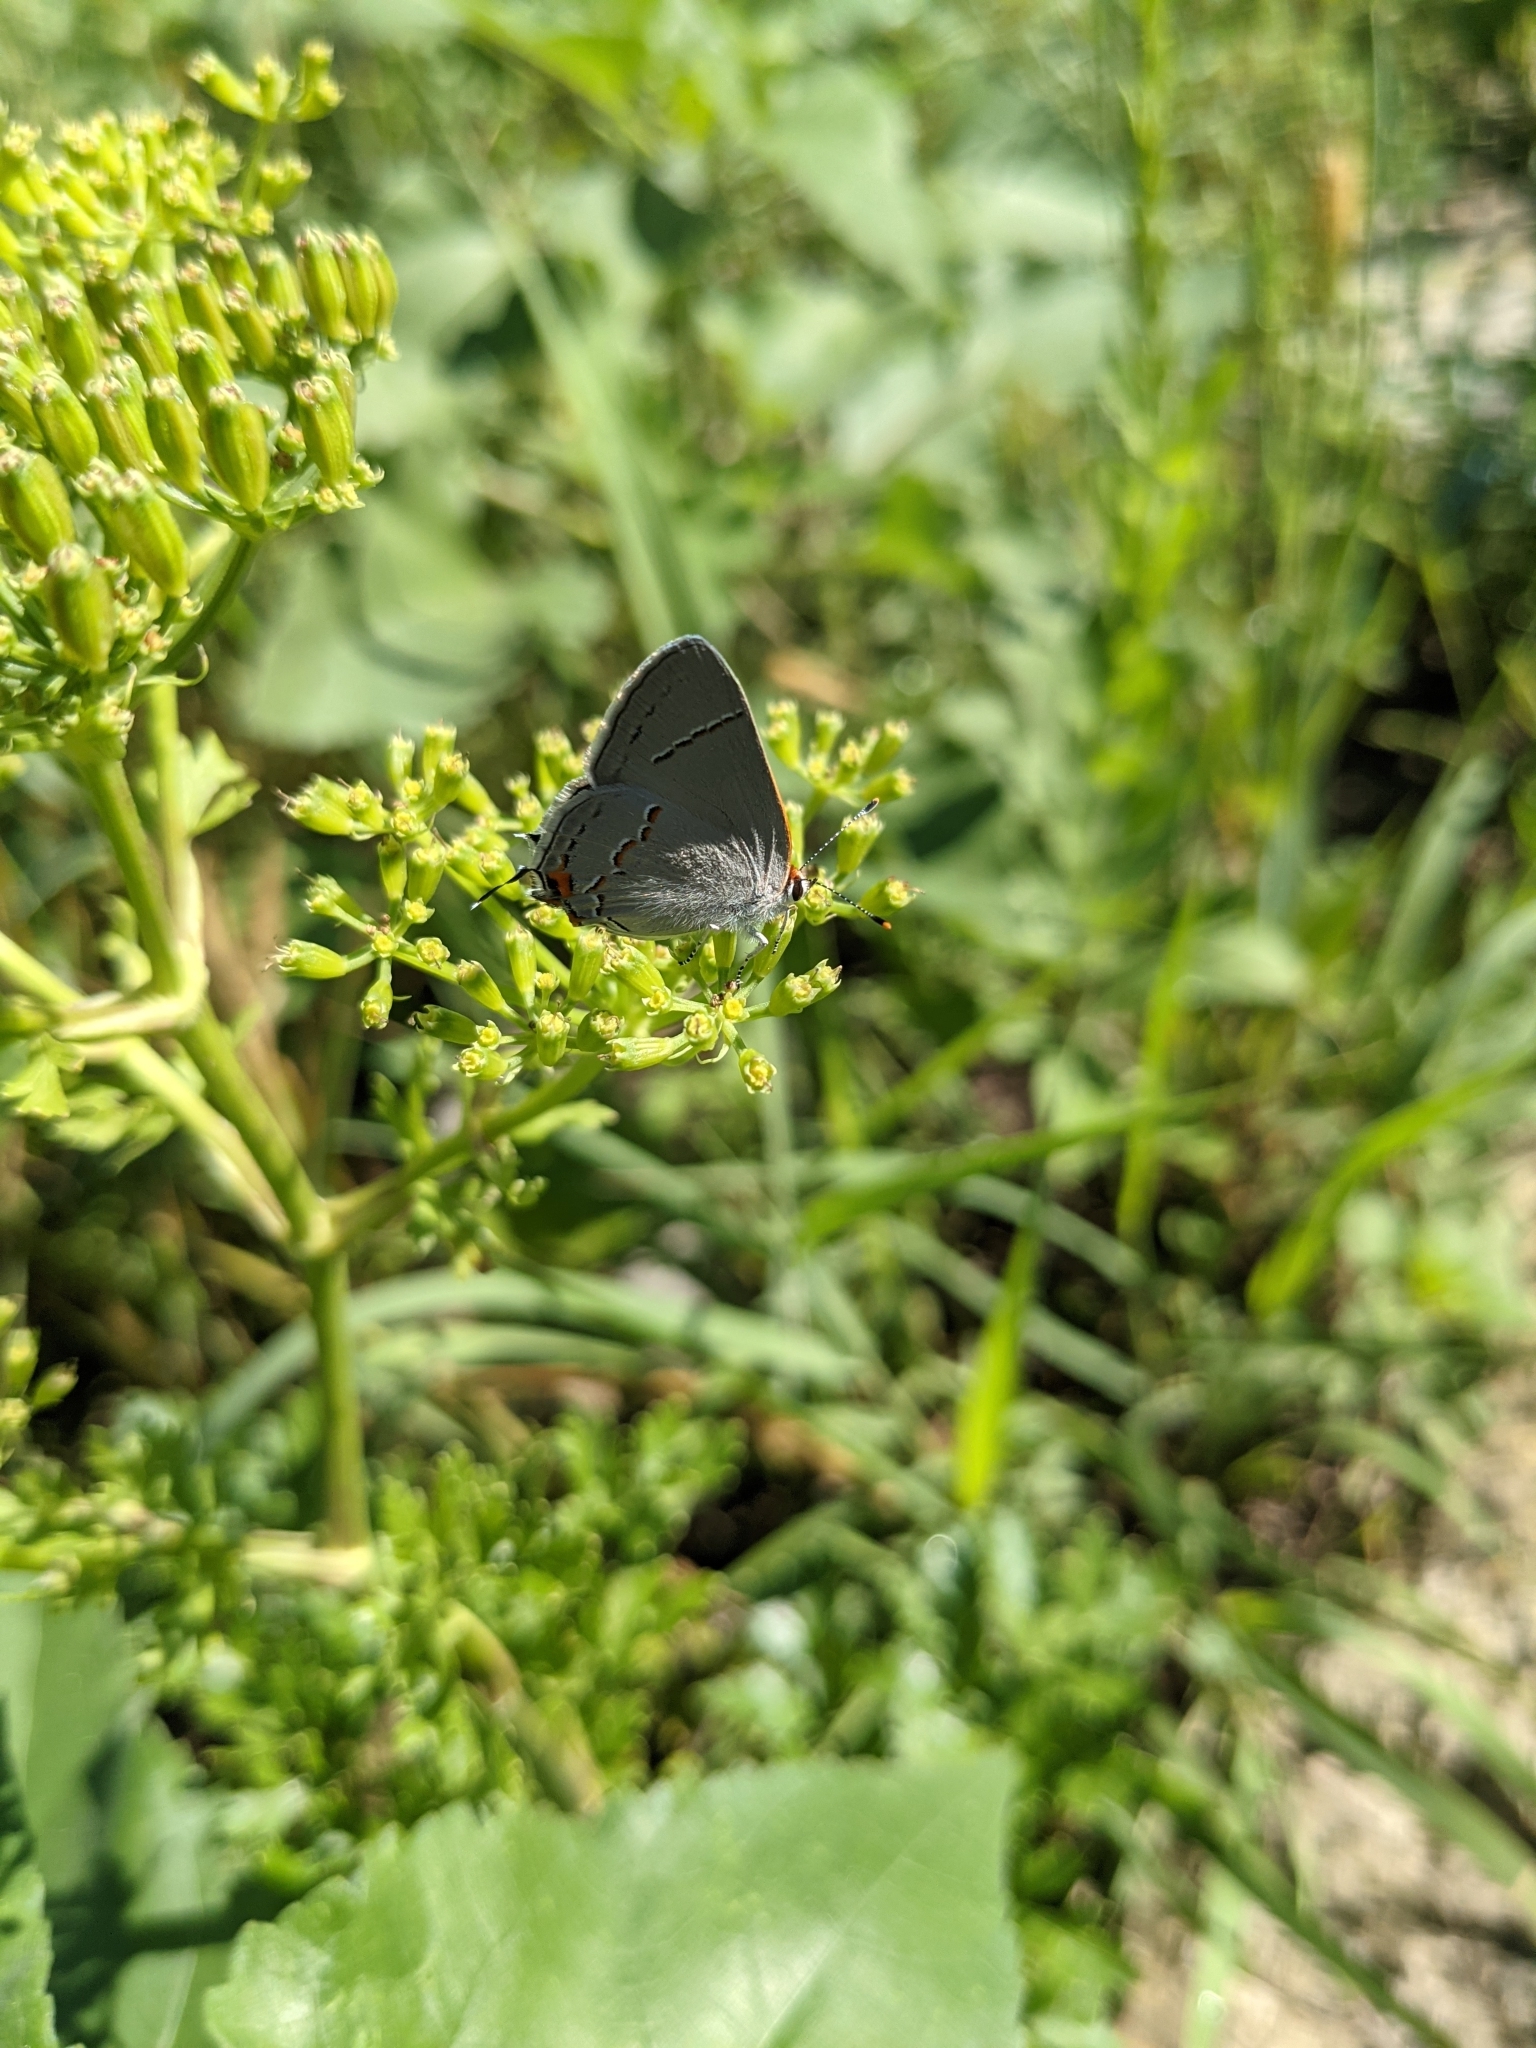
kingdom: Animalia
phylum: Arthropoda
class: Insecta
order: Lepidoptera
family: Lycaenidae
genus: Strymon
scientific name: Strymon melinus
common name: Gray hairstreak
